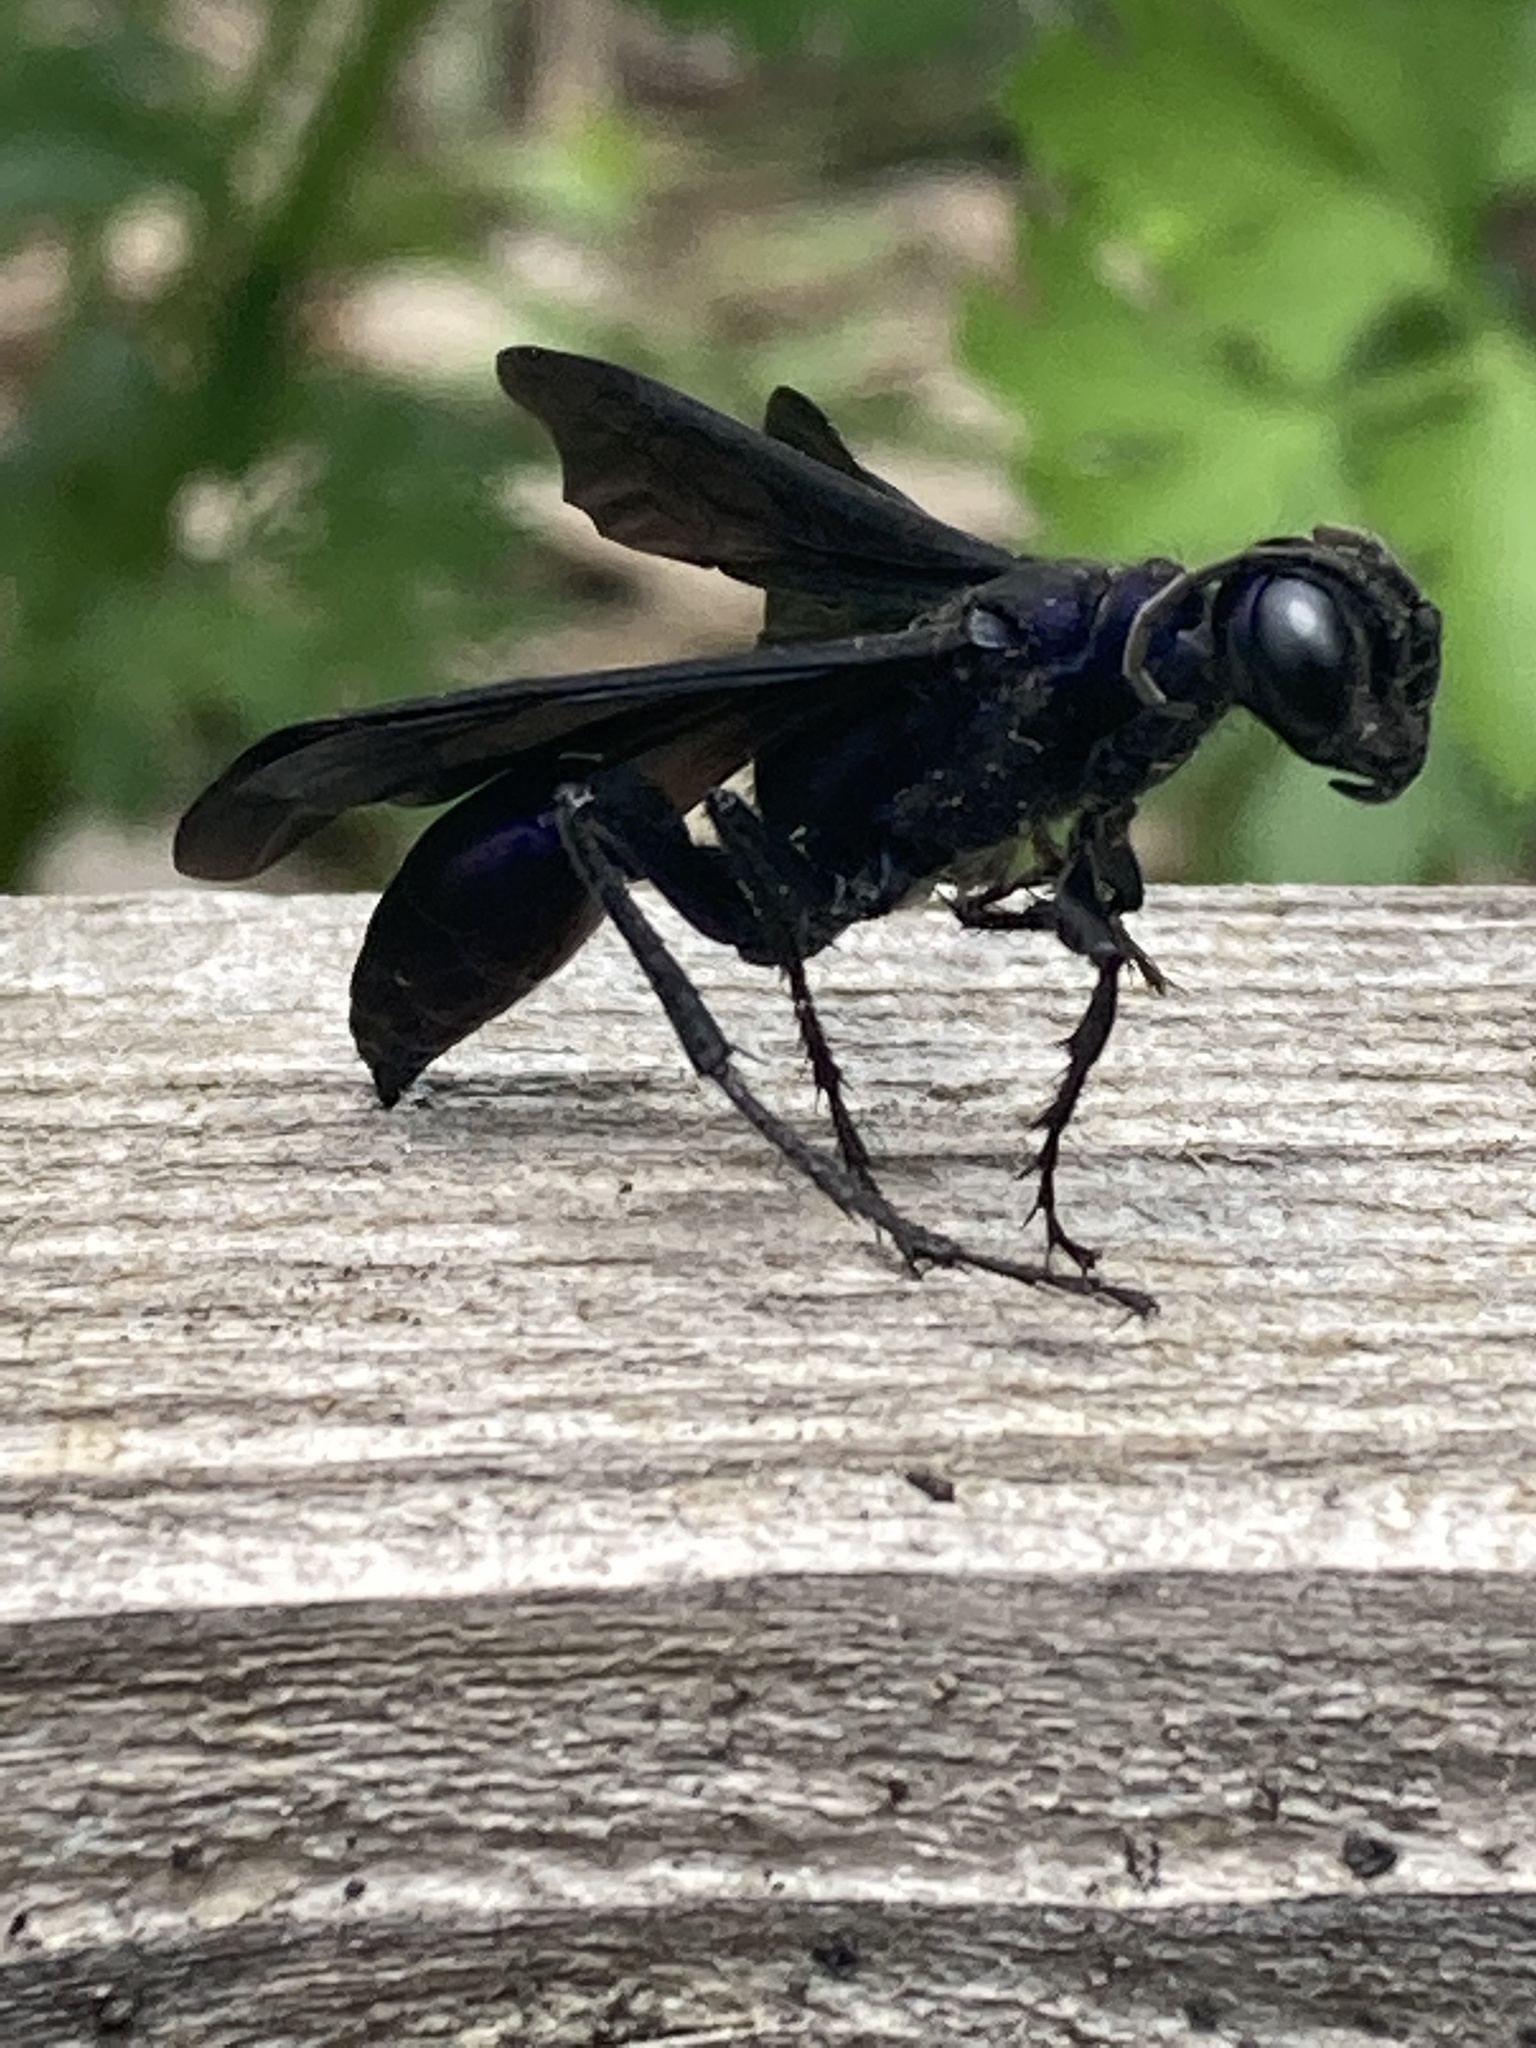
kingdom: Animalia
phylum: Arthropoda
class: Insecta
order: Hymenoptera
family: Sphecidae
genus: Chlorion
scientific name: Chlorion aerarium
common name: Steel-blue cricket hunter
